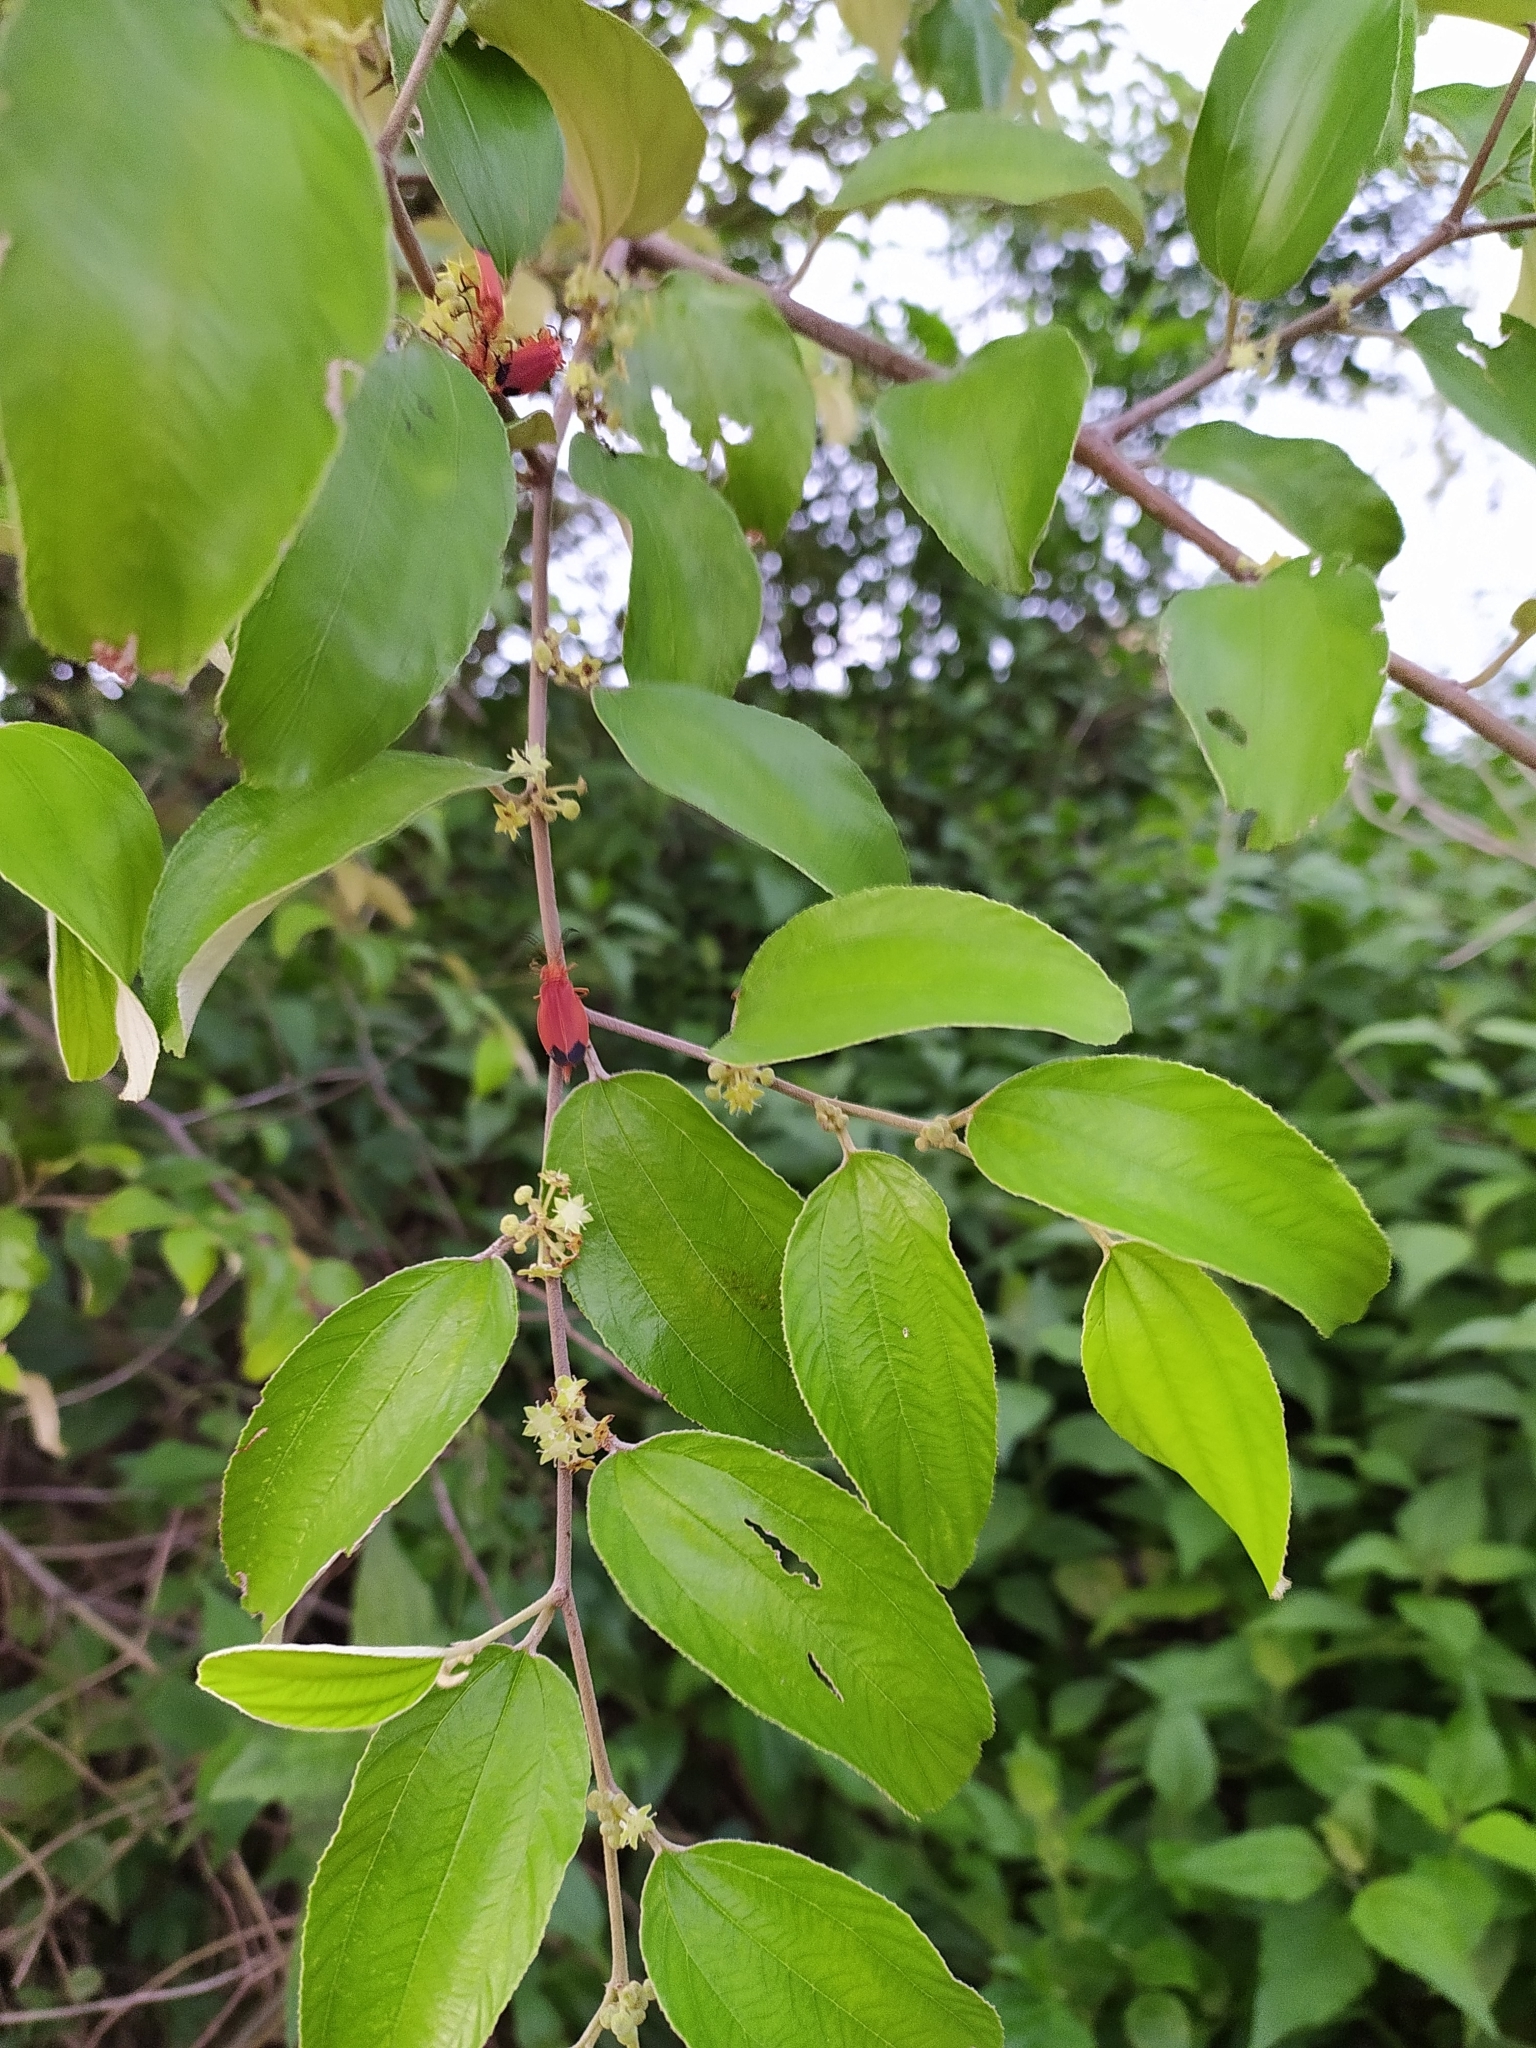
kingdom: Plantae
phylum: Tracheophyta
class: Magnoliopsida
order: Rosales
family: Rhamnaceae
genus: Ziziphus
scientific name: Ziziphus mauritiana
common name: Indian jujube
